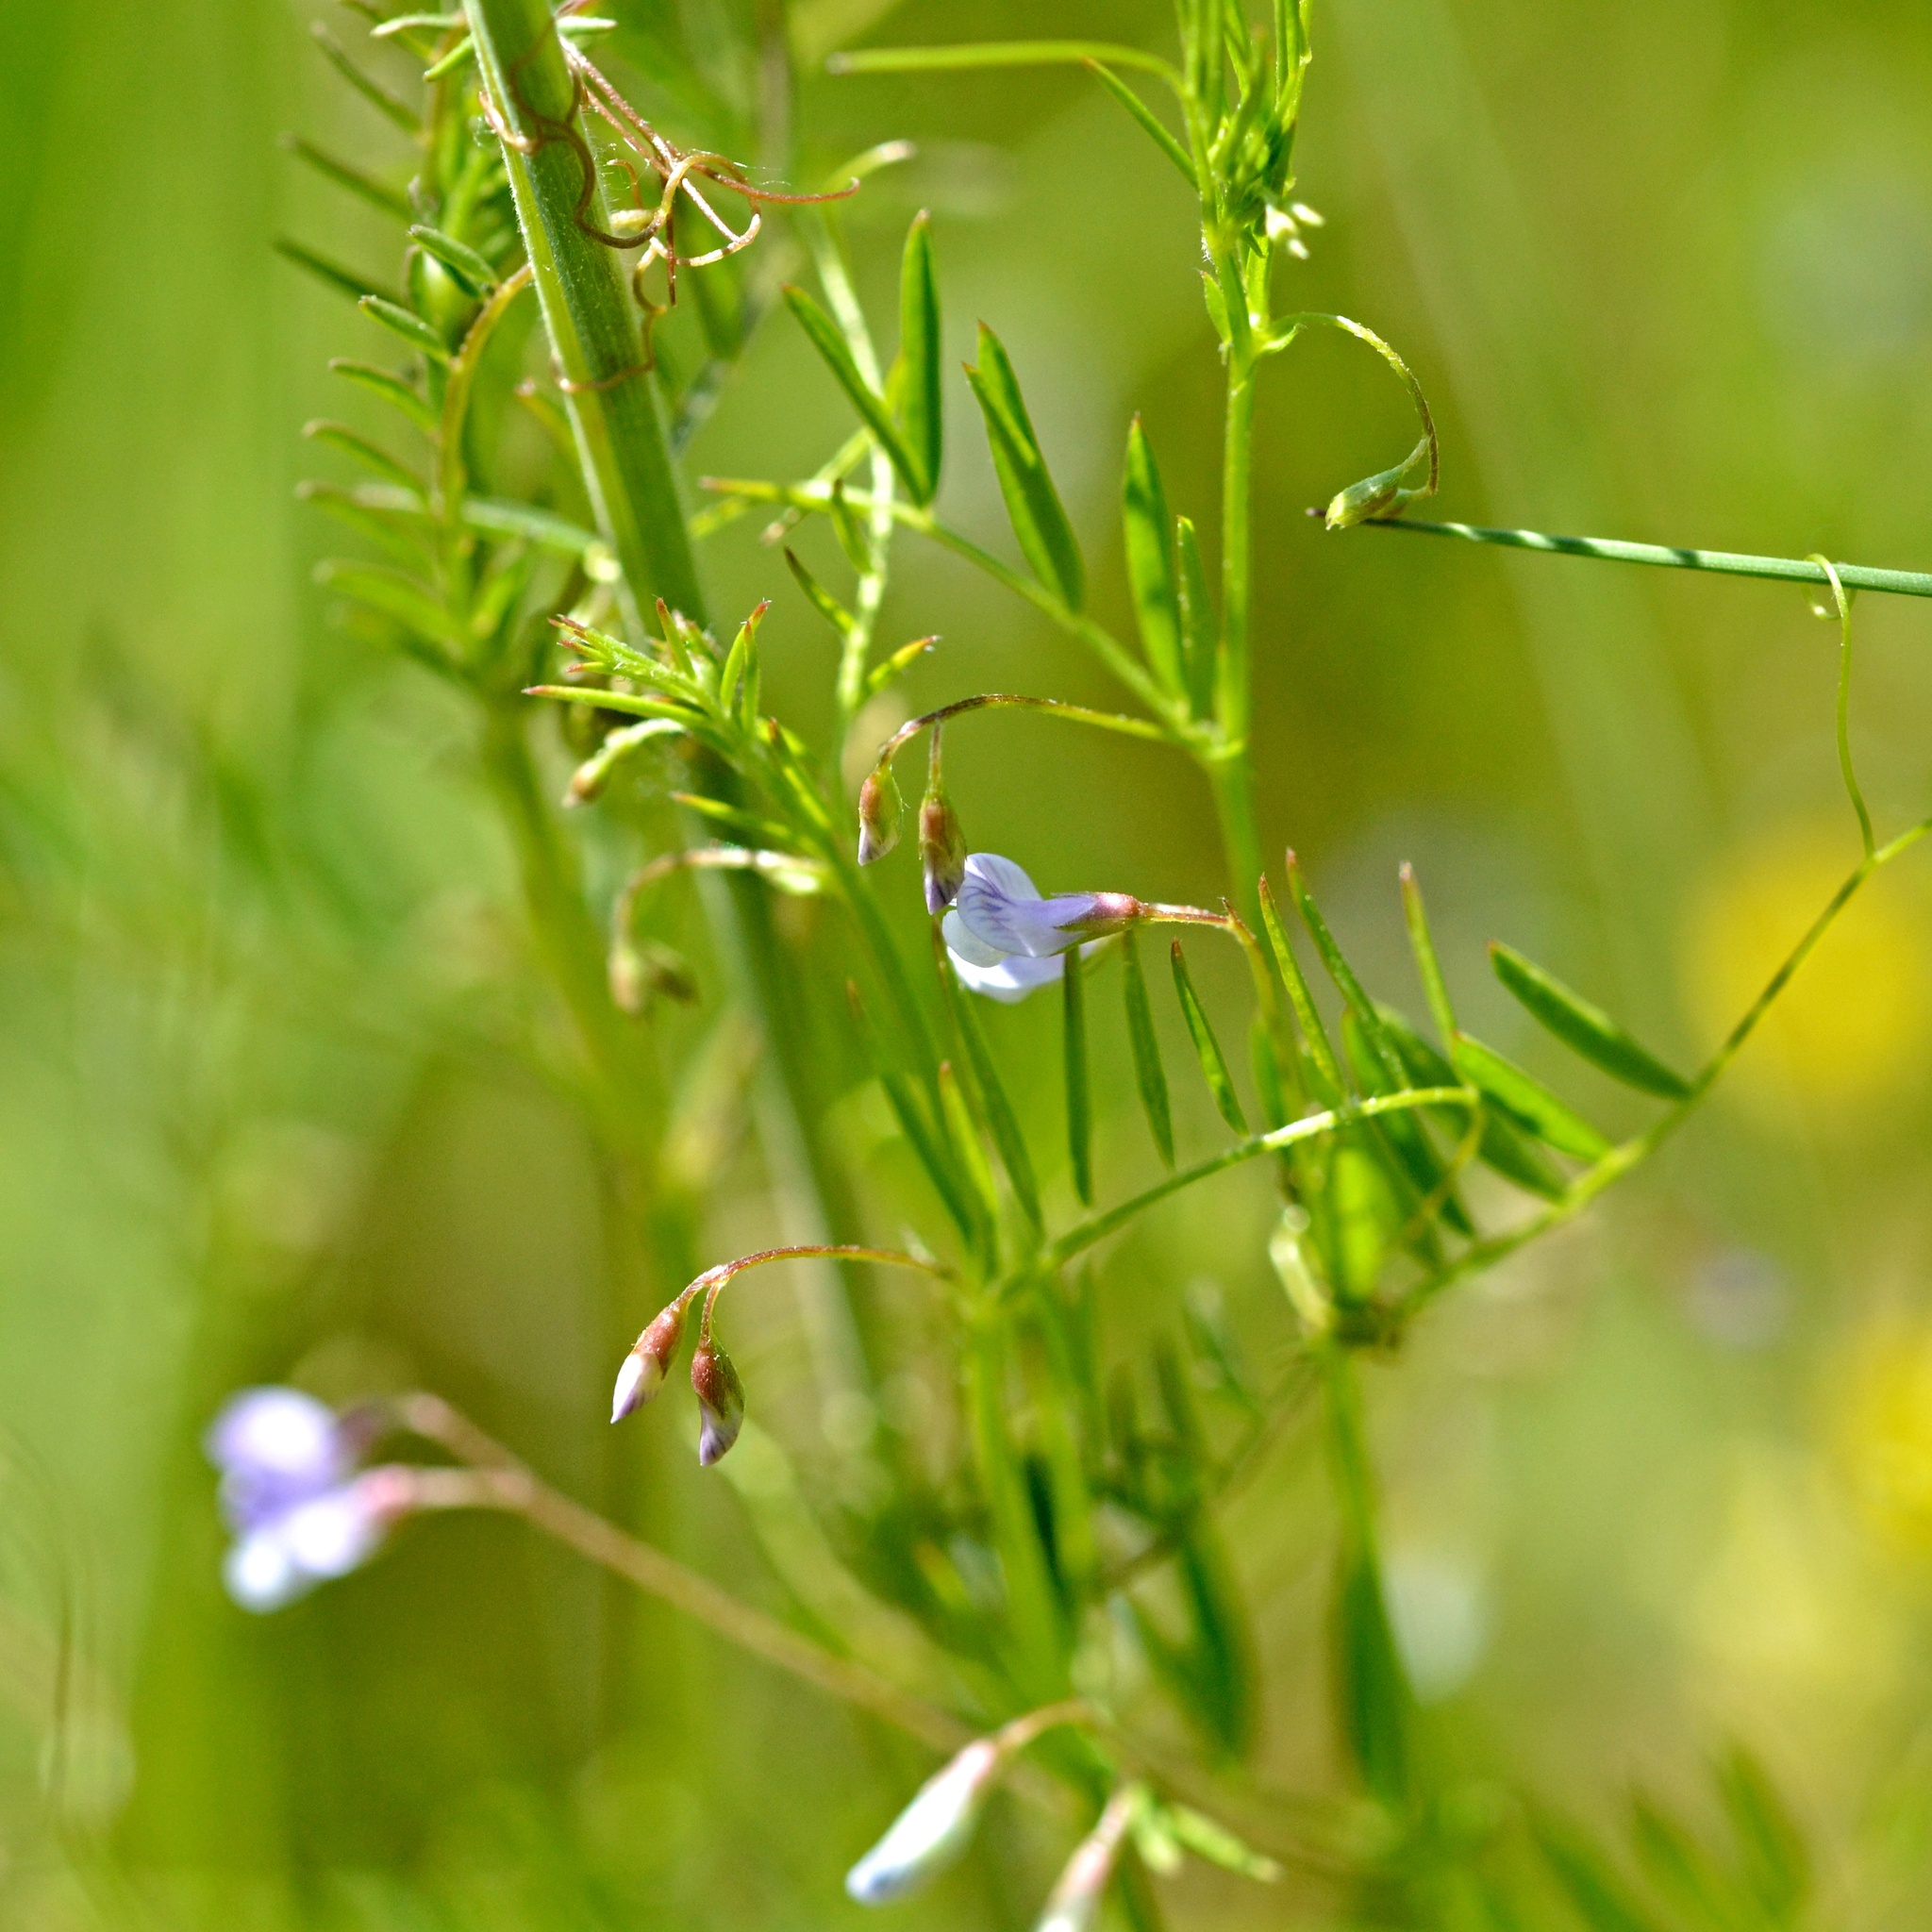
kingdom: Plantae
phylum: Tracheophyta
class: Magnoliopsida
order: Fabales
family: Fabaceae
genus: Vicia
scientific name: Vicia tetrasperma
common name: Smooth tare
